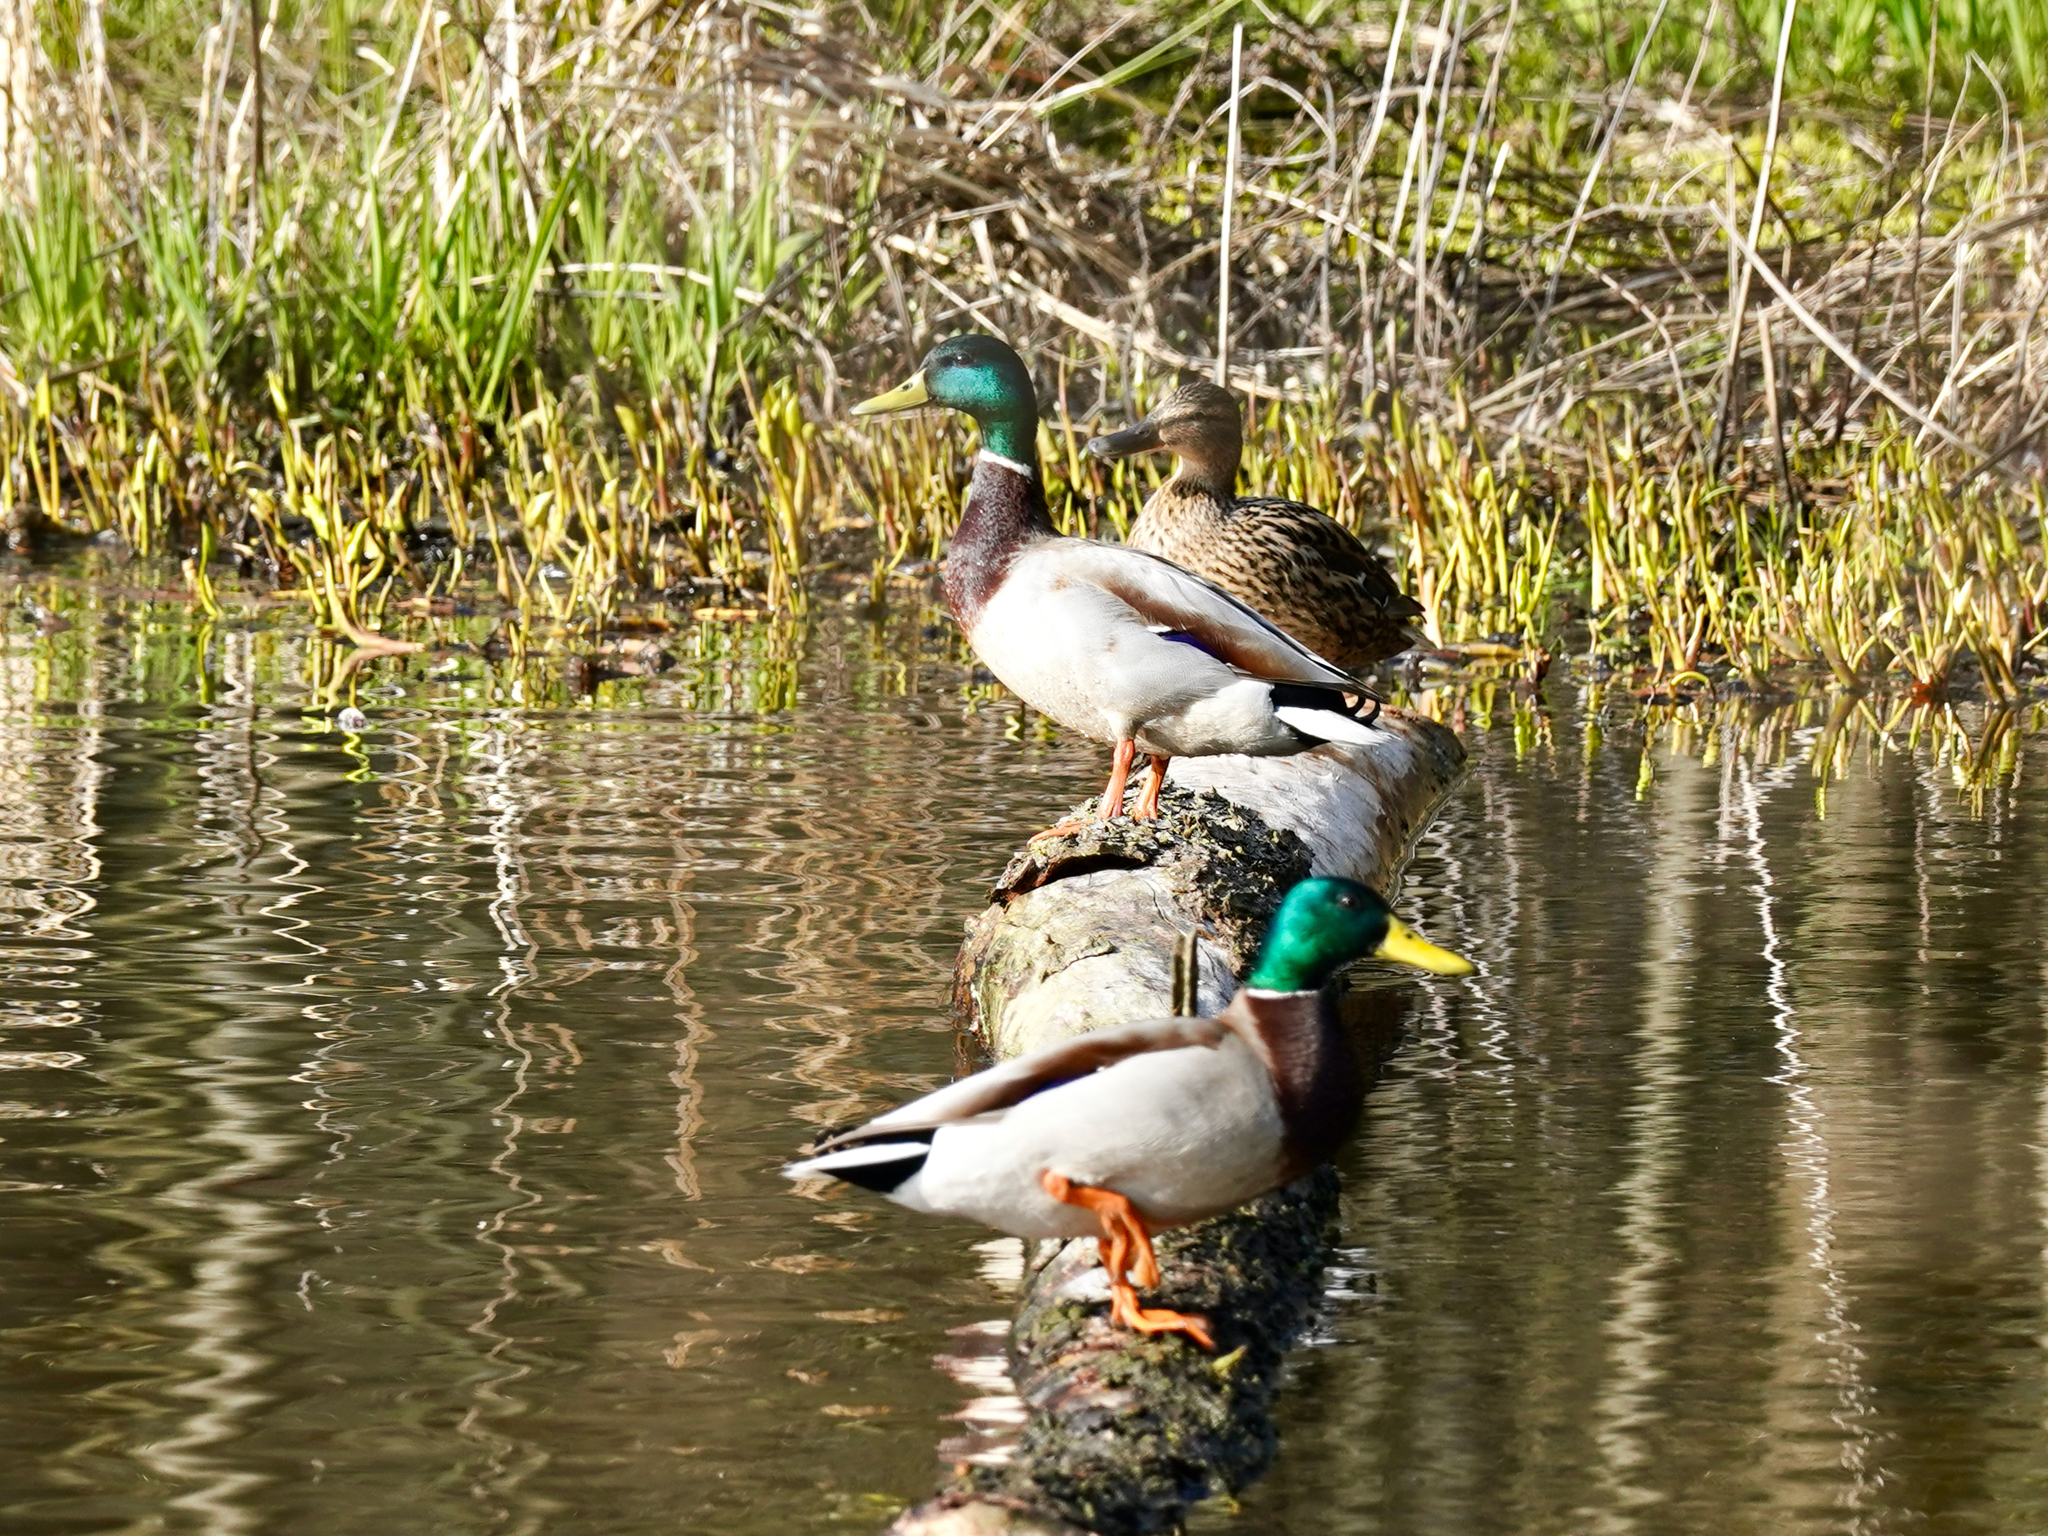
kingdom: Animalia
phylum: Chordata
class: Aves
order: Anseriformes
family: Anatidae
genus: Anas
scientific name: Anas platyrhynchos
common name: Mallard
